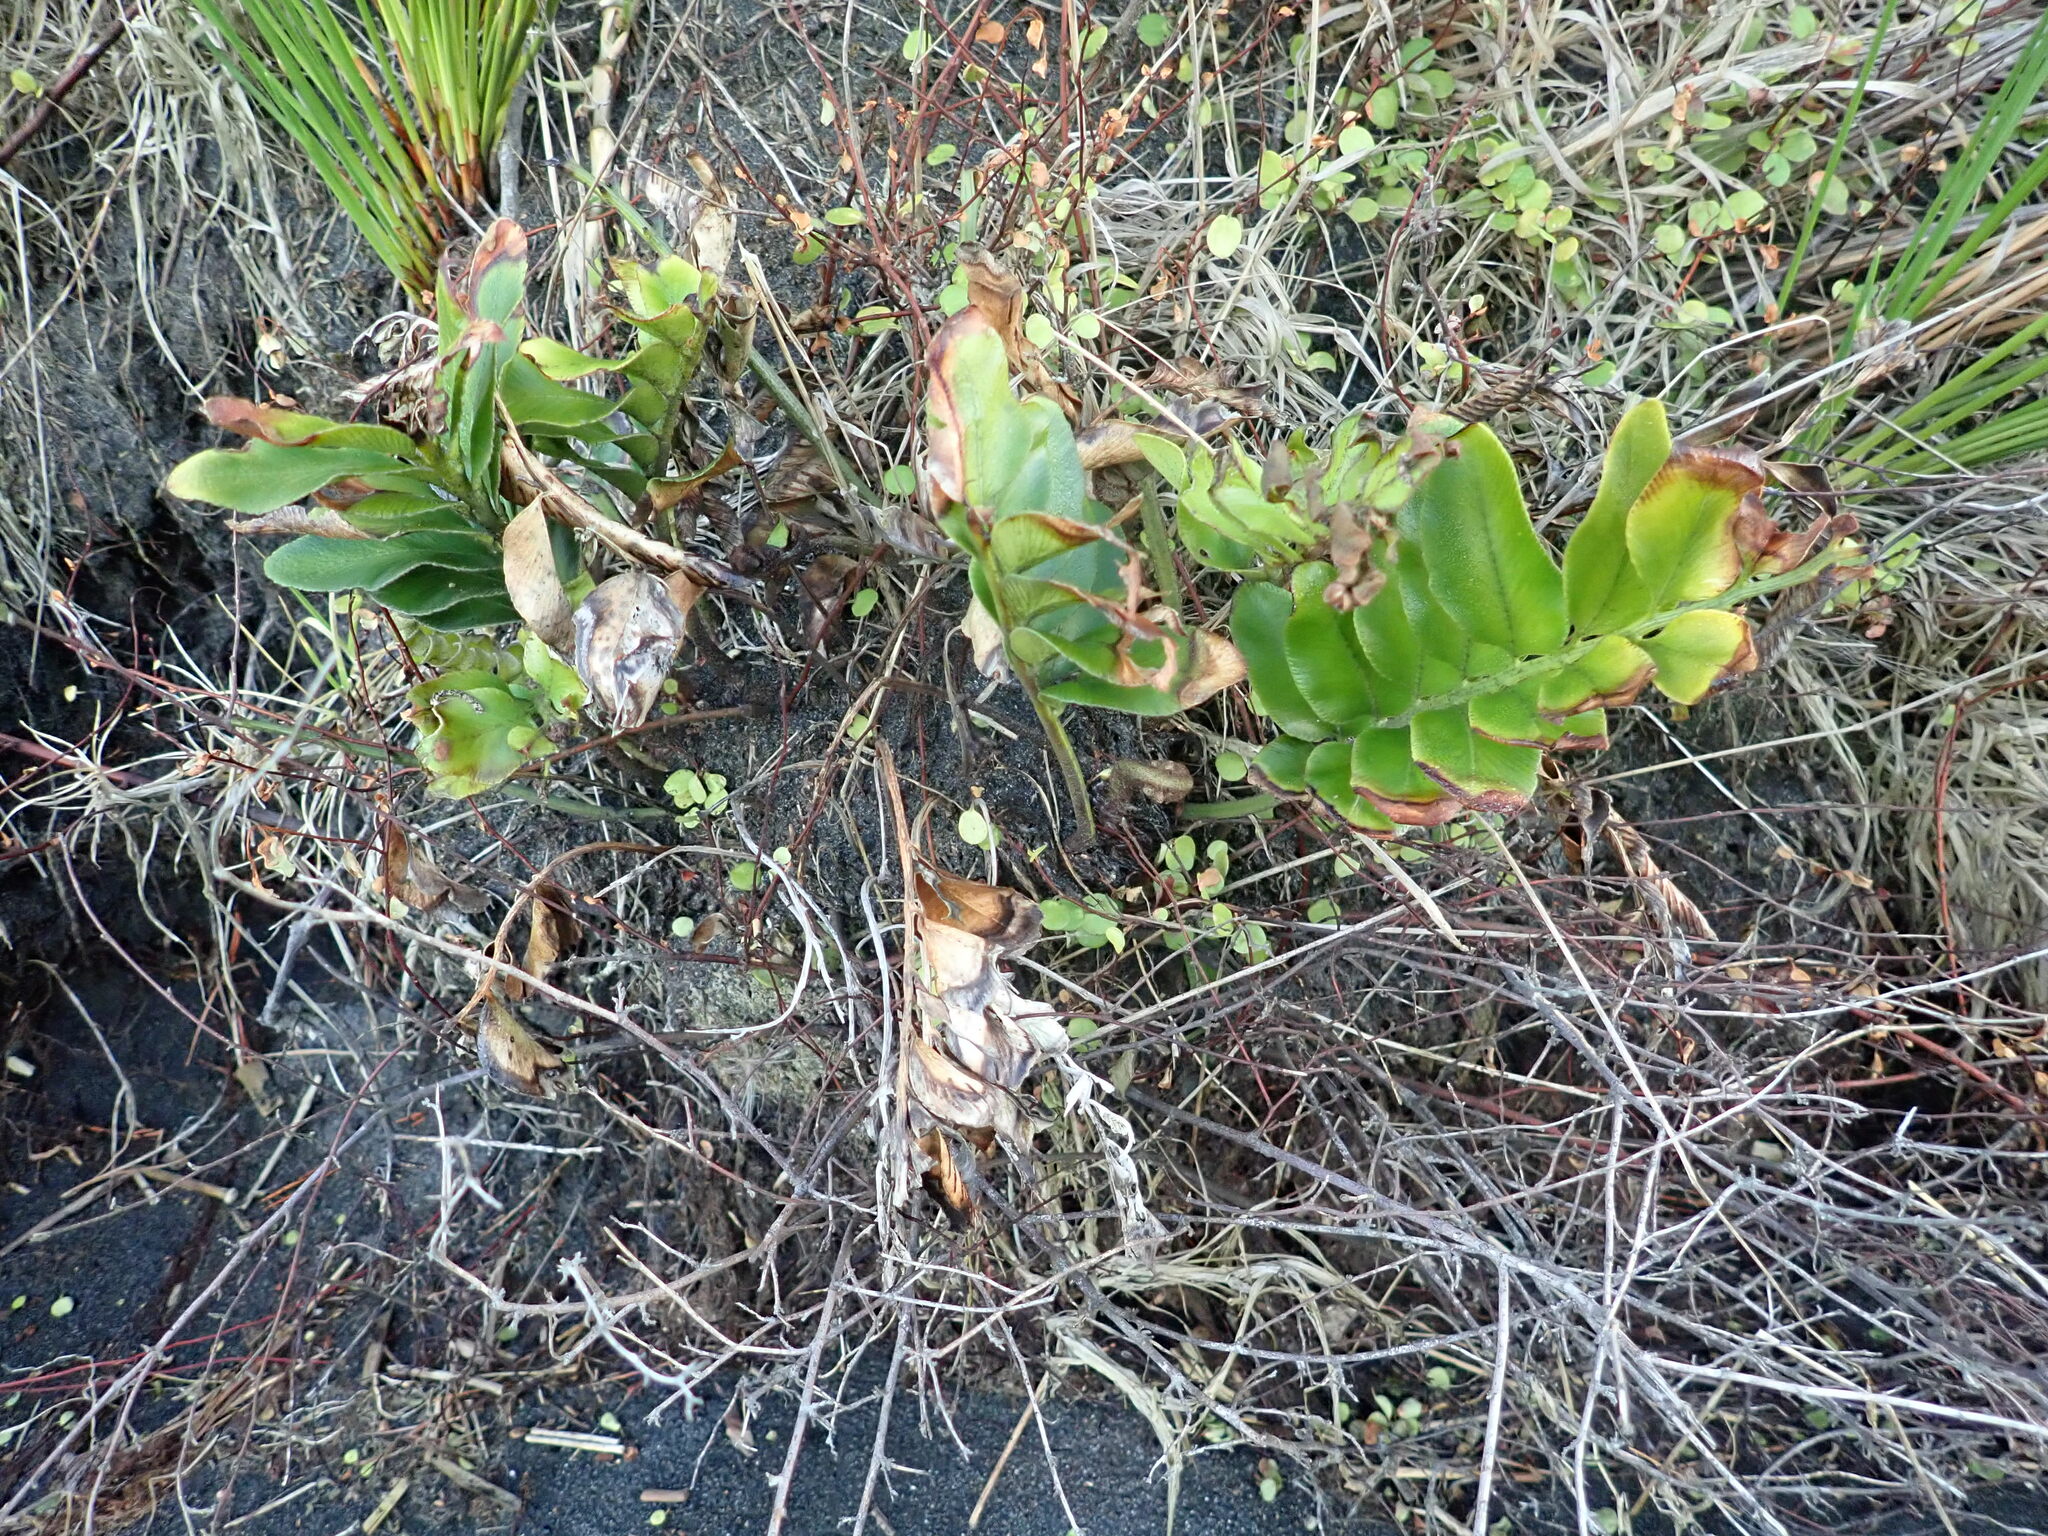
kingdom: Plantae
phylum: Tracheophyta
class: Polypodiopsida
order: Polypodiales
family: Aspleniaceae
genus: Asplenium
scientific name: Asplenium
